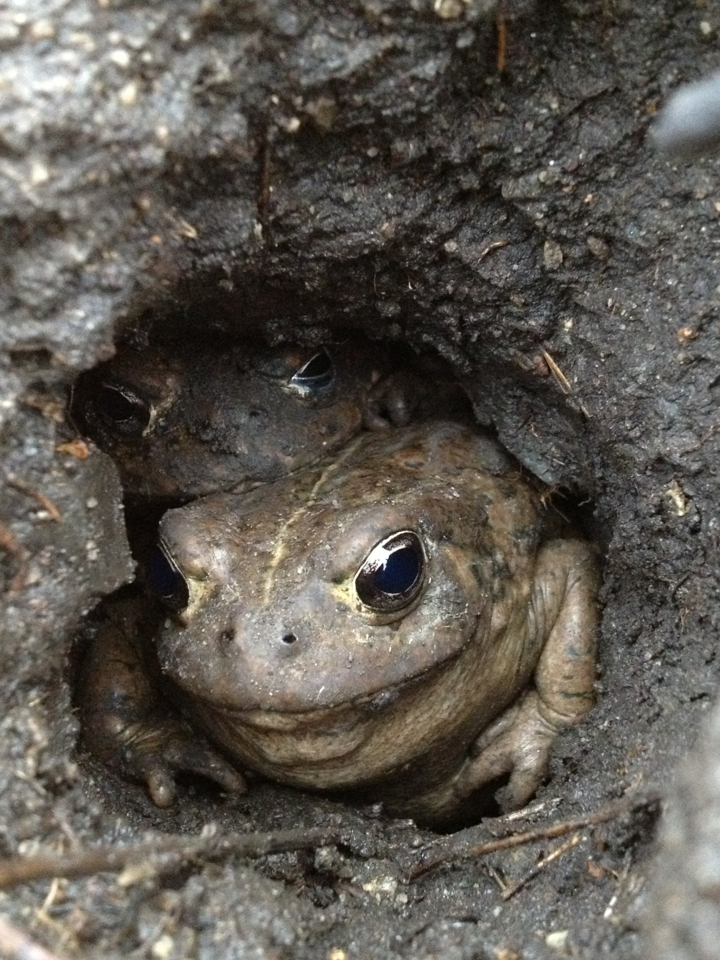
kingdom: Animalia
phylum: Chordata
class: Amphibia
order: Anura
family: Bufonidae
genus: Anaxyrus
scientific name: Anaxyrus boreas
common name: Western toad
